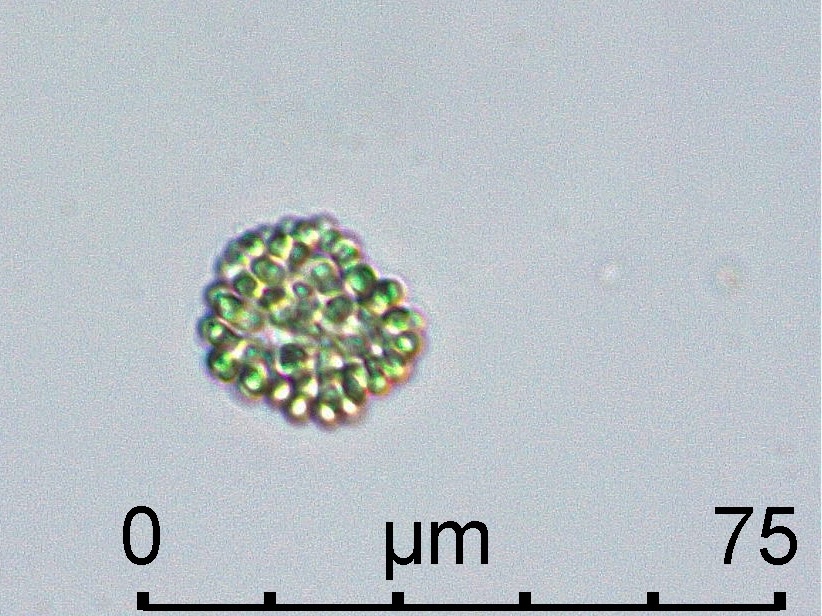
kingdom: Bacteria
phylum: Cyanobacteria
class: Cyanobacteriia
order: Cyanobacteriales
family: Microcystaceae
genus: Coelomoron
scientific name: Coelomoron pusillum
